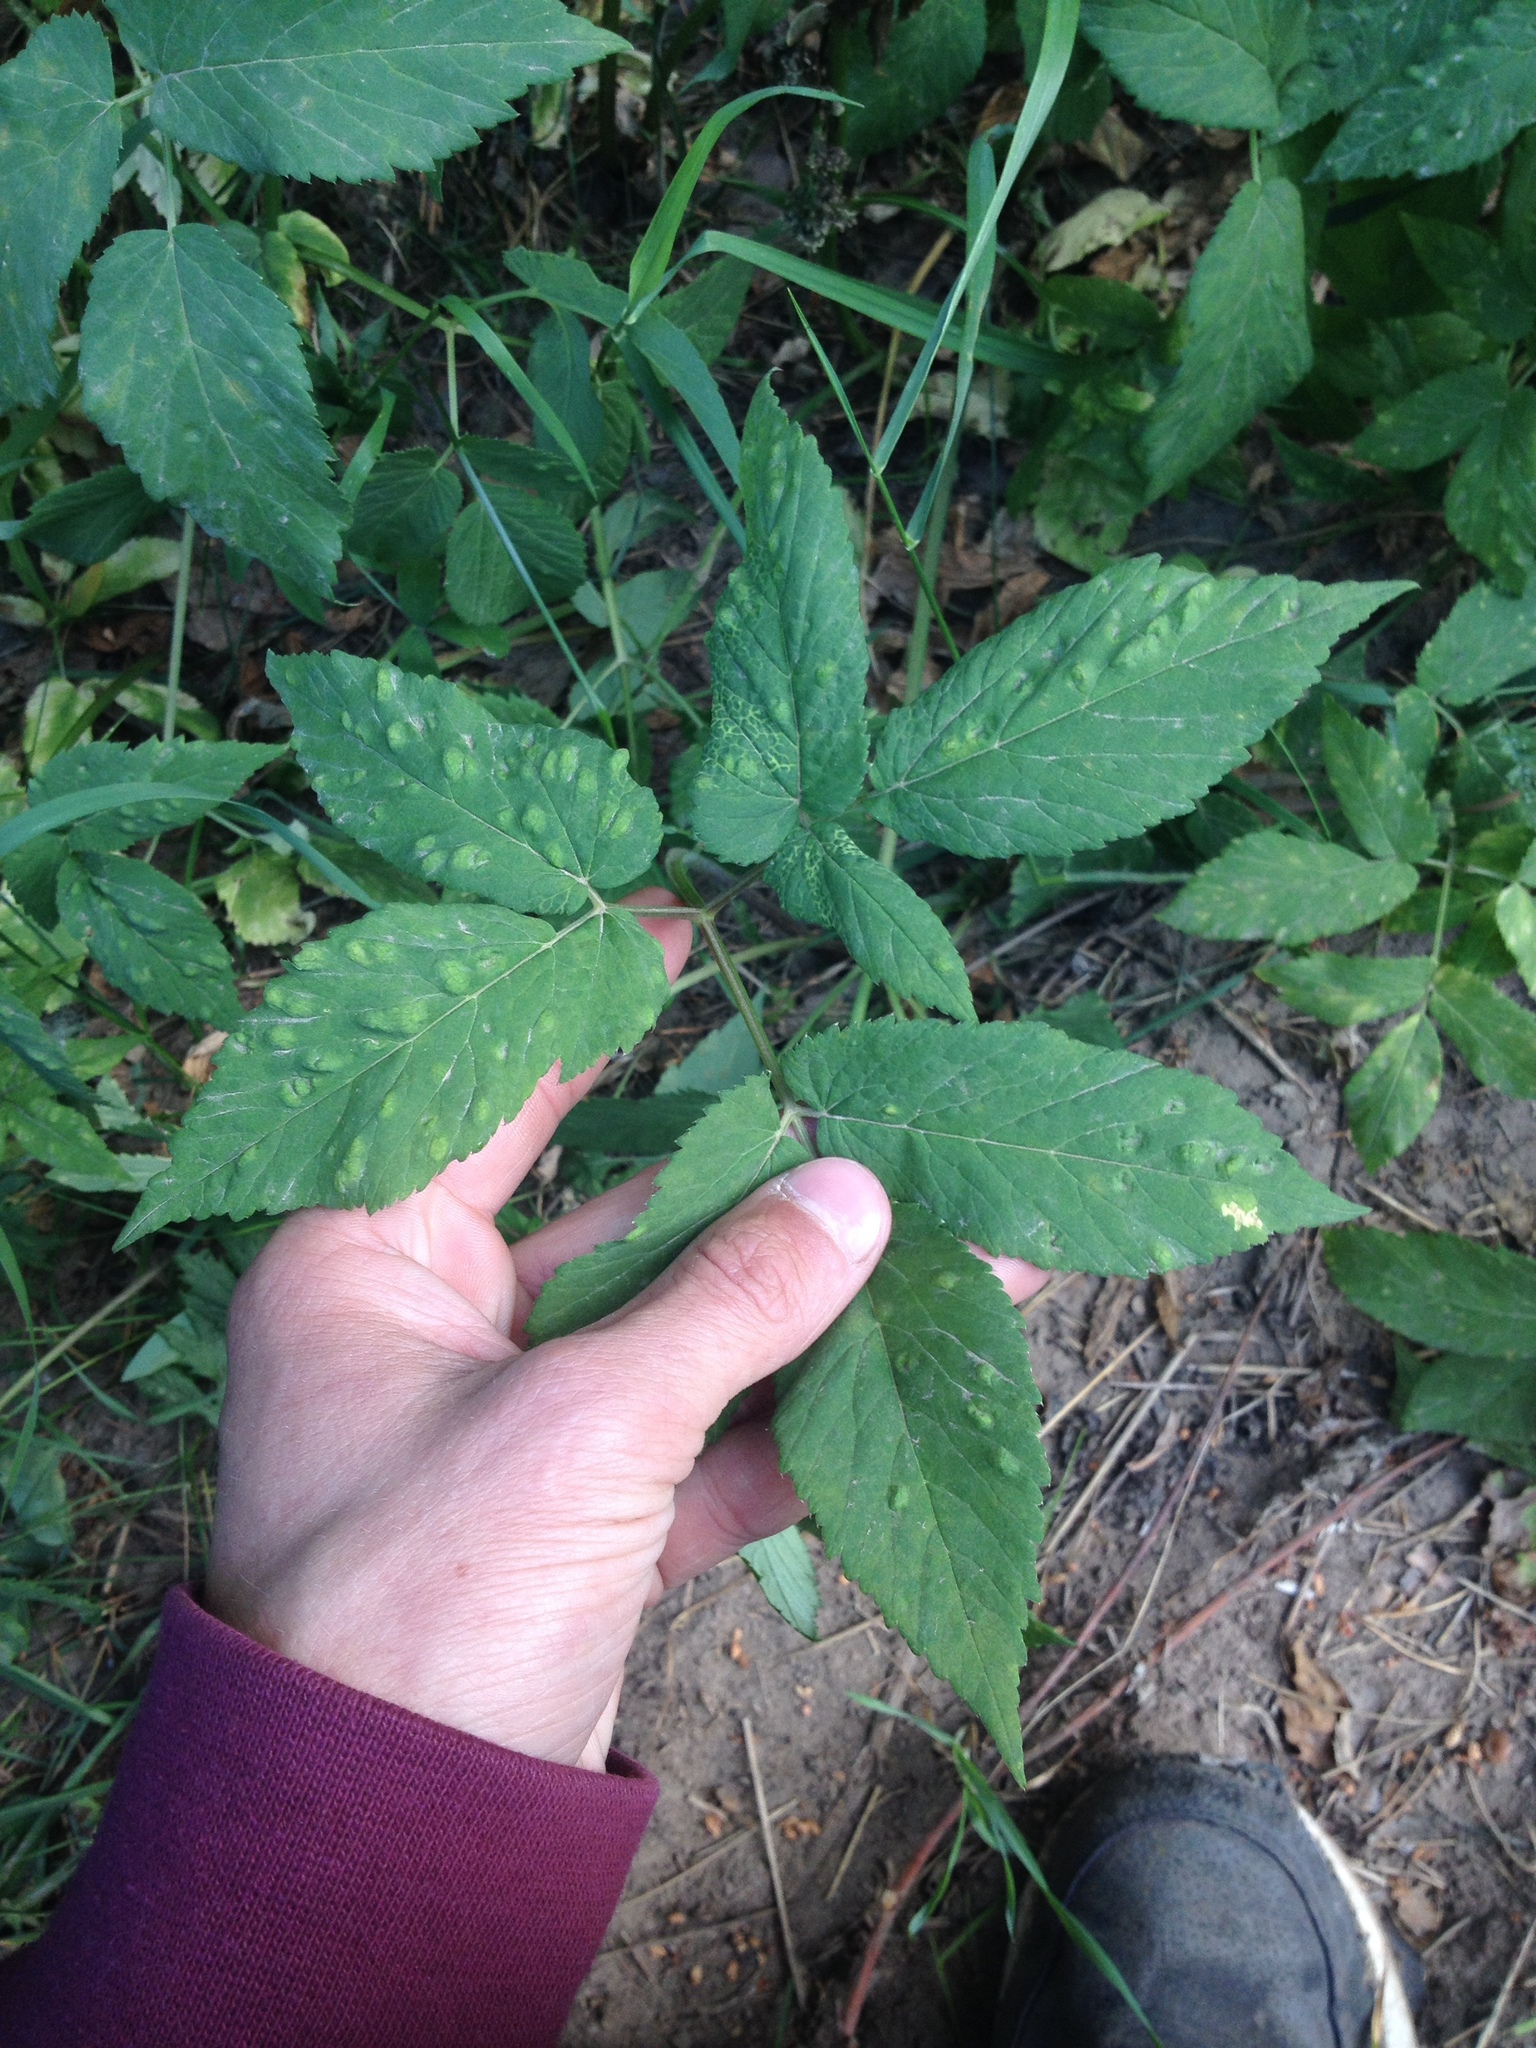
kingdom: Animalia
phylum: Arthropoda
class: Insecta
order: Hemiptera
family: Triozidae
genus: Trioza
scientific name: Trioza flavipennis
